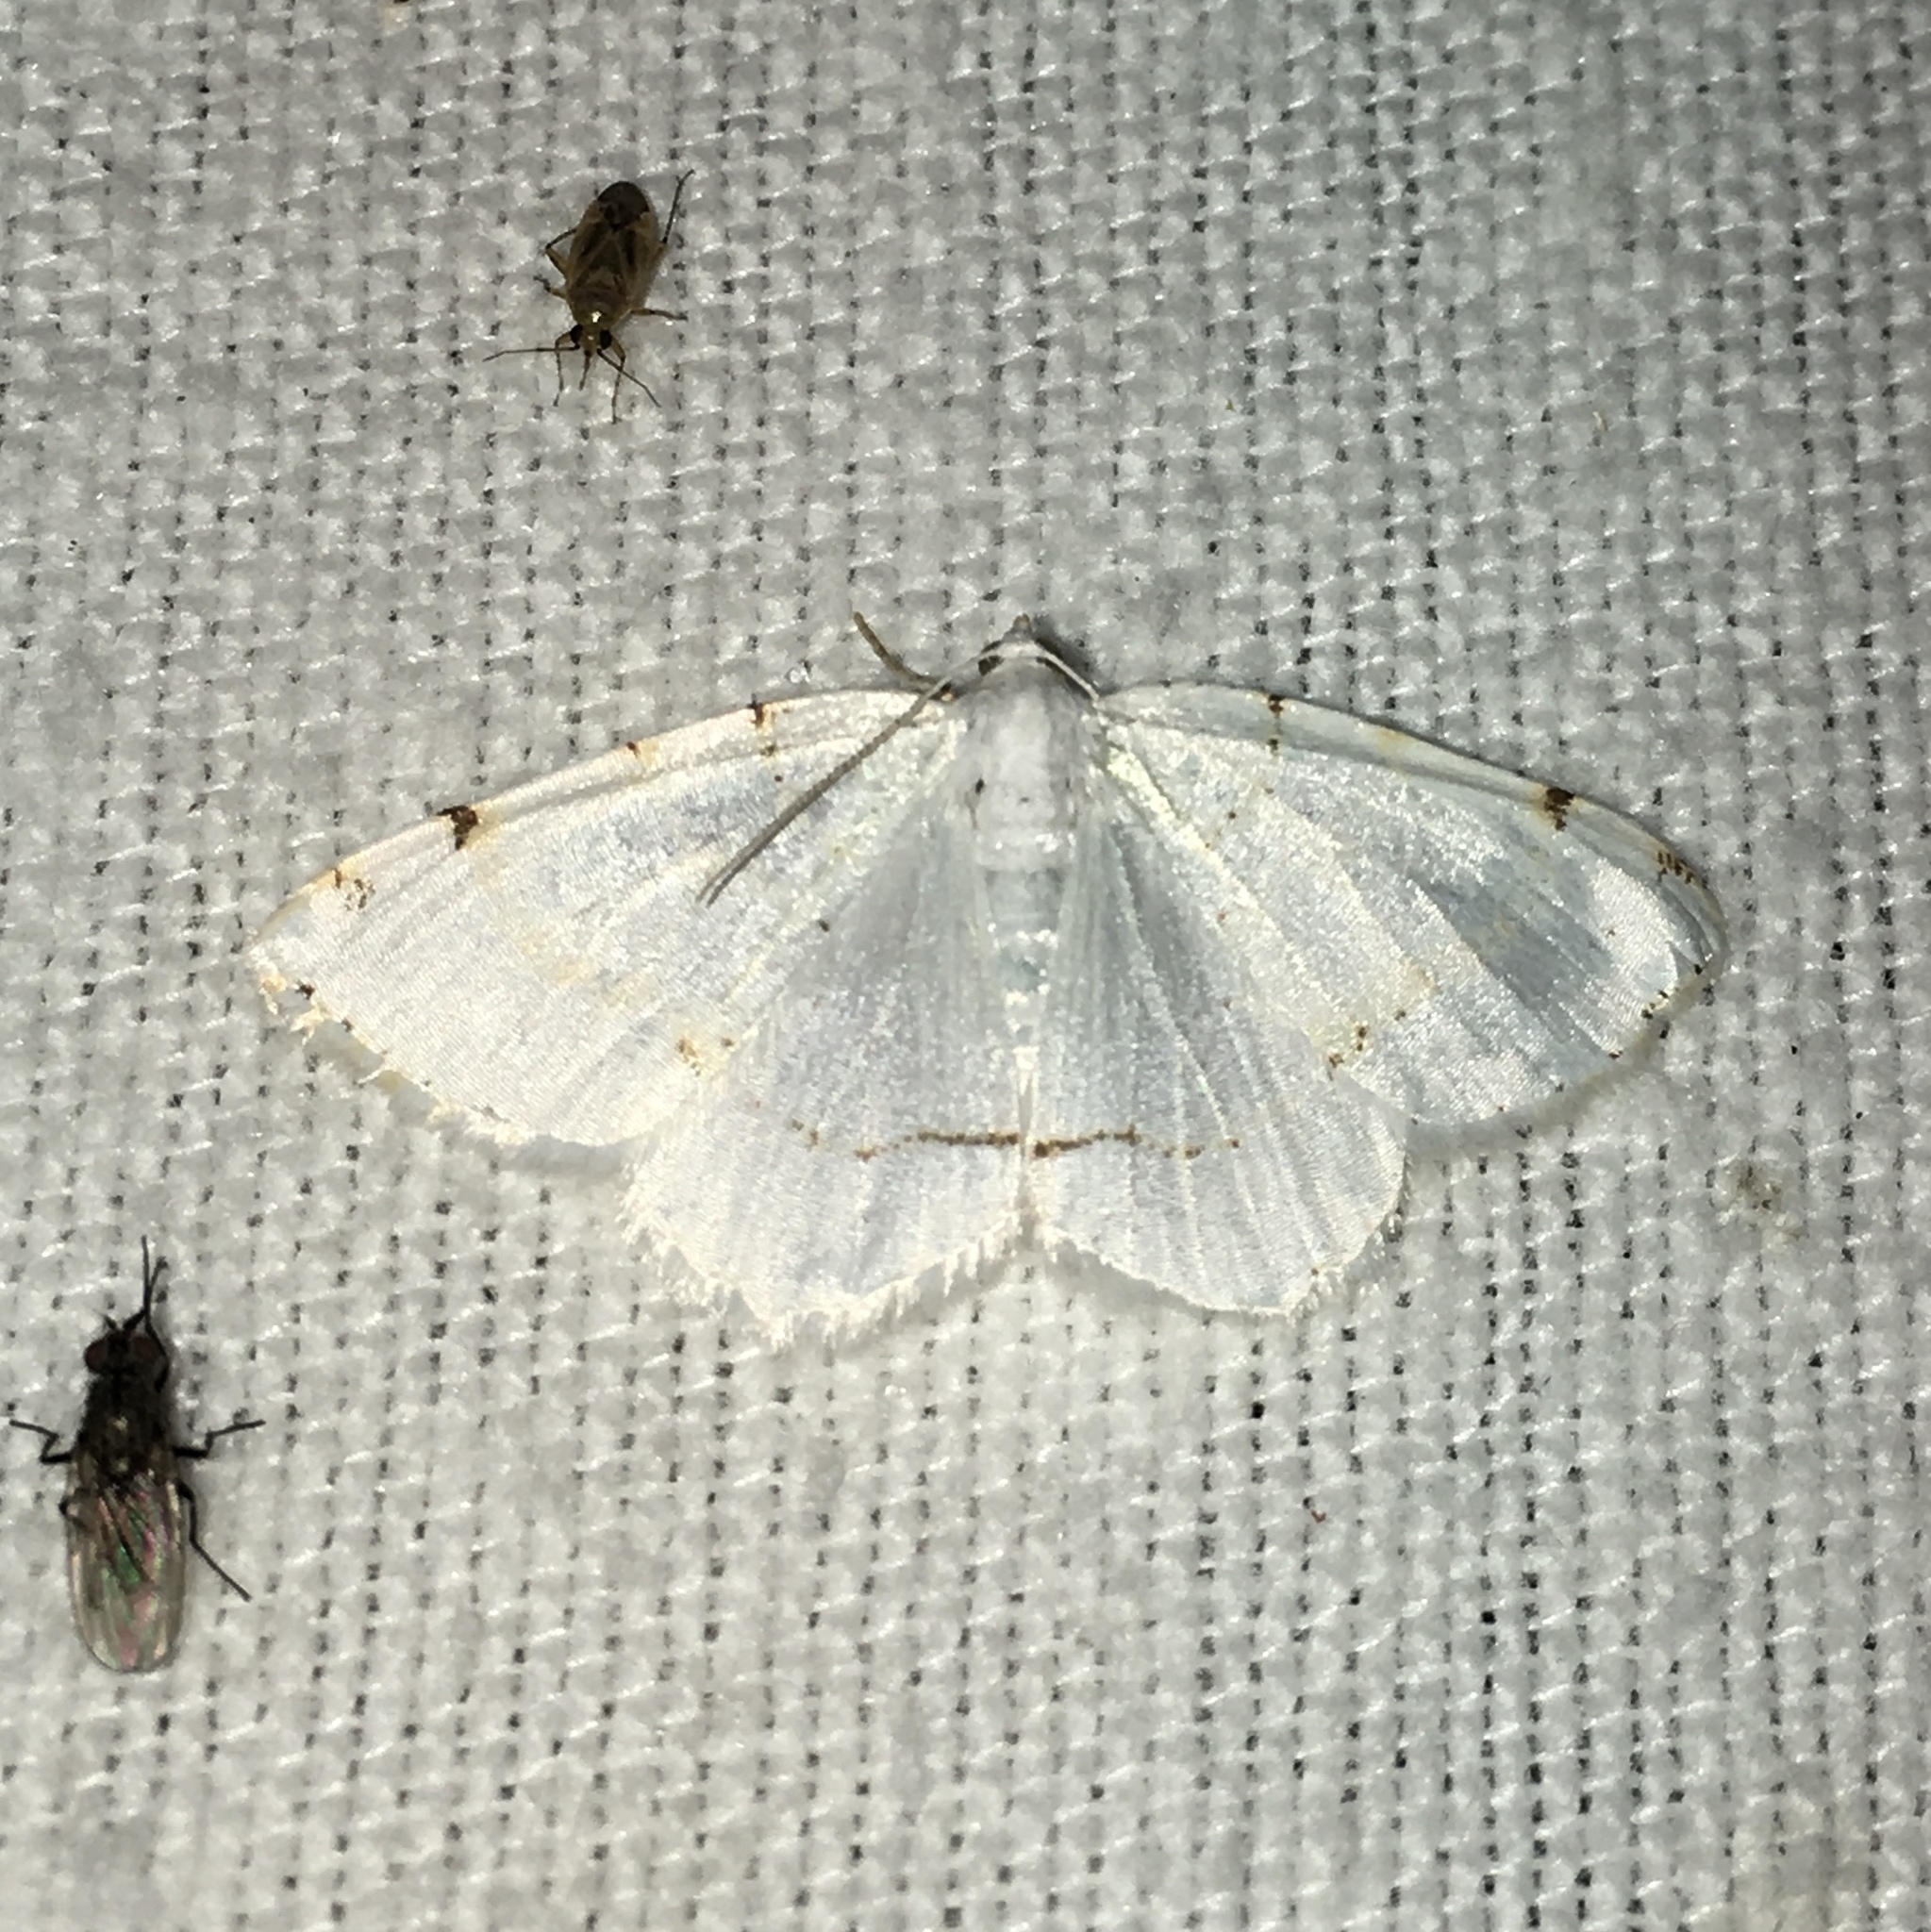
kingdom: Animalia
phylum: Arthropoda
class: Insecta
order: Lepidoptera
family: Geometridae
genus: Macaria
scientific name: Macaria pustularia
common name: Lesser maple spanworm moth
